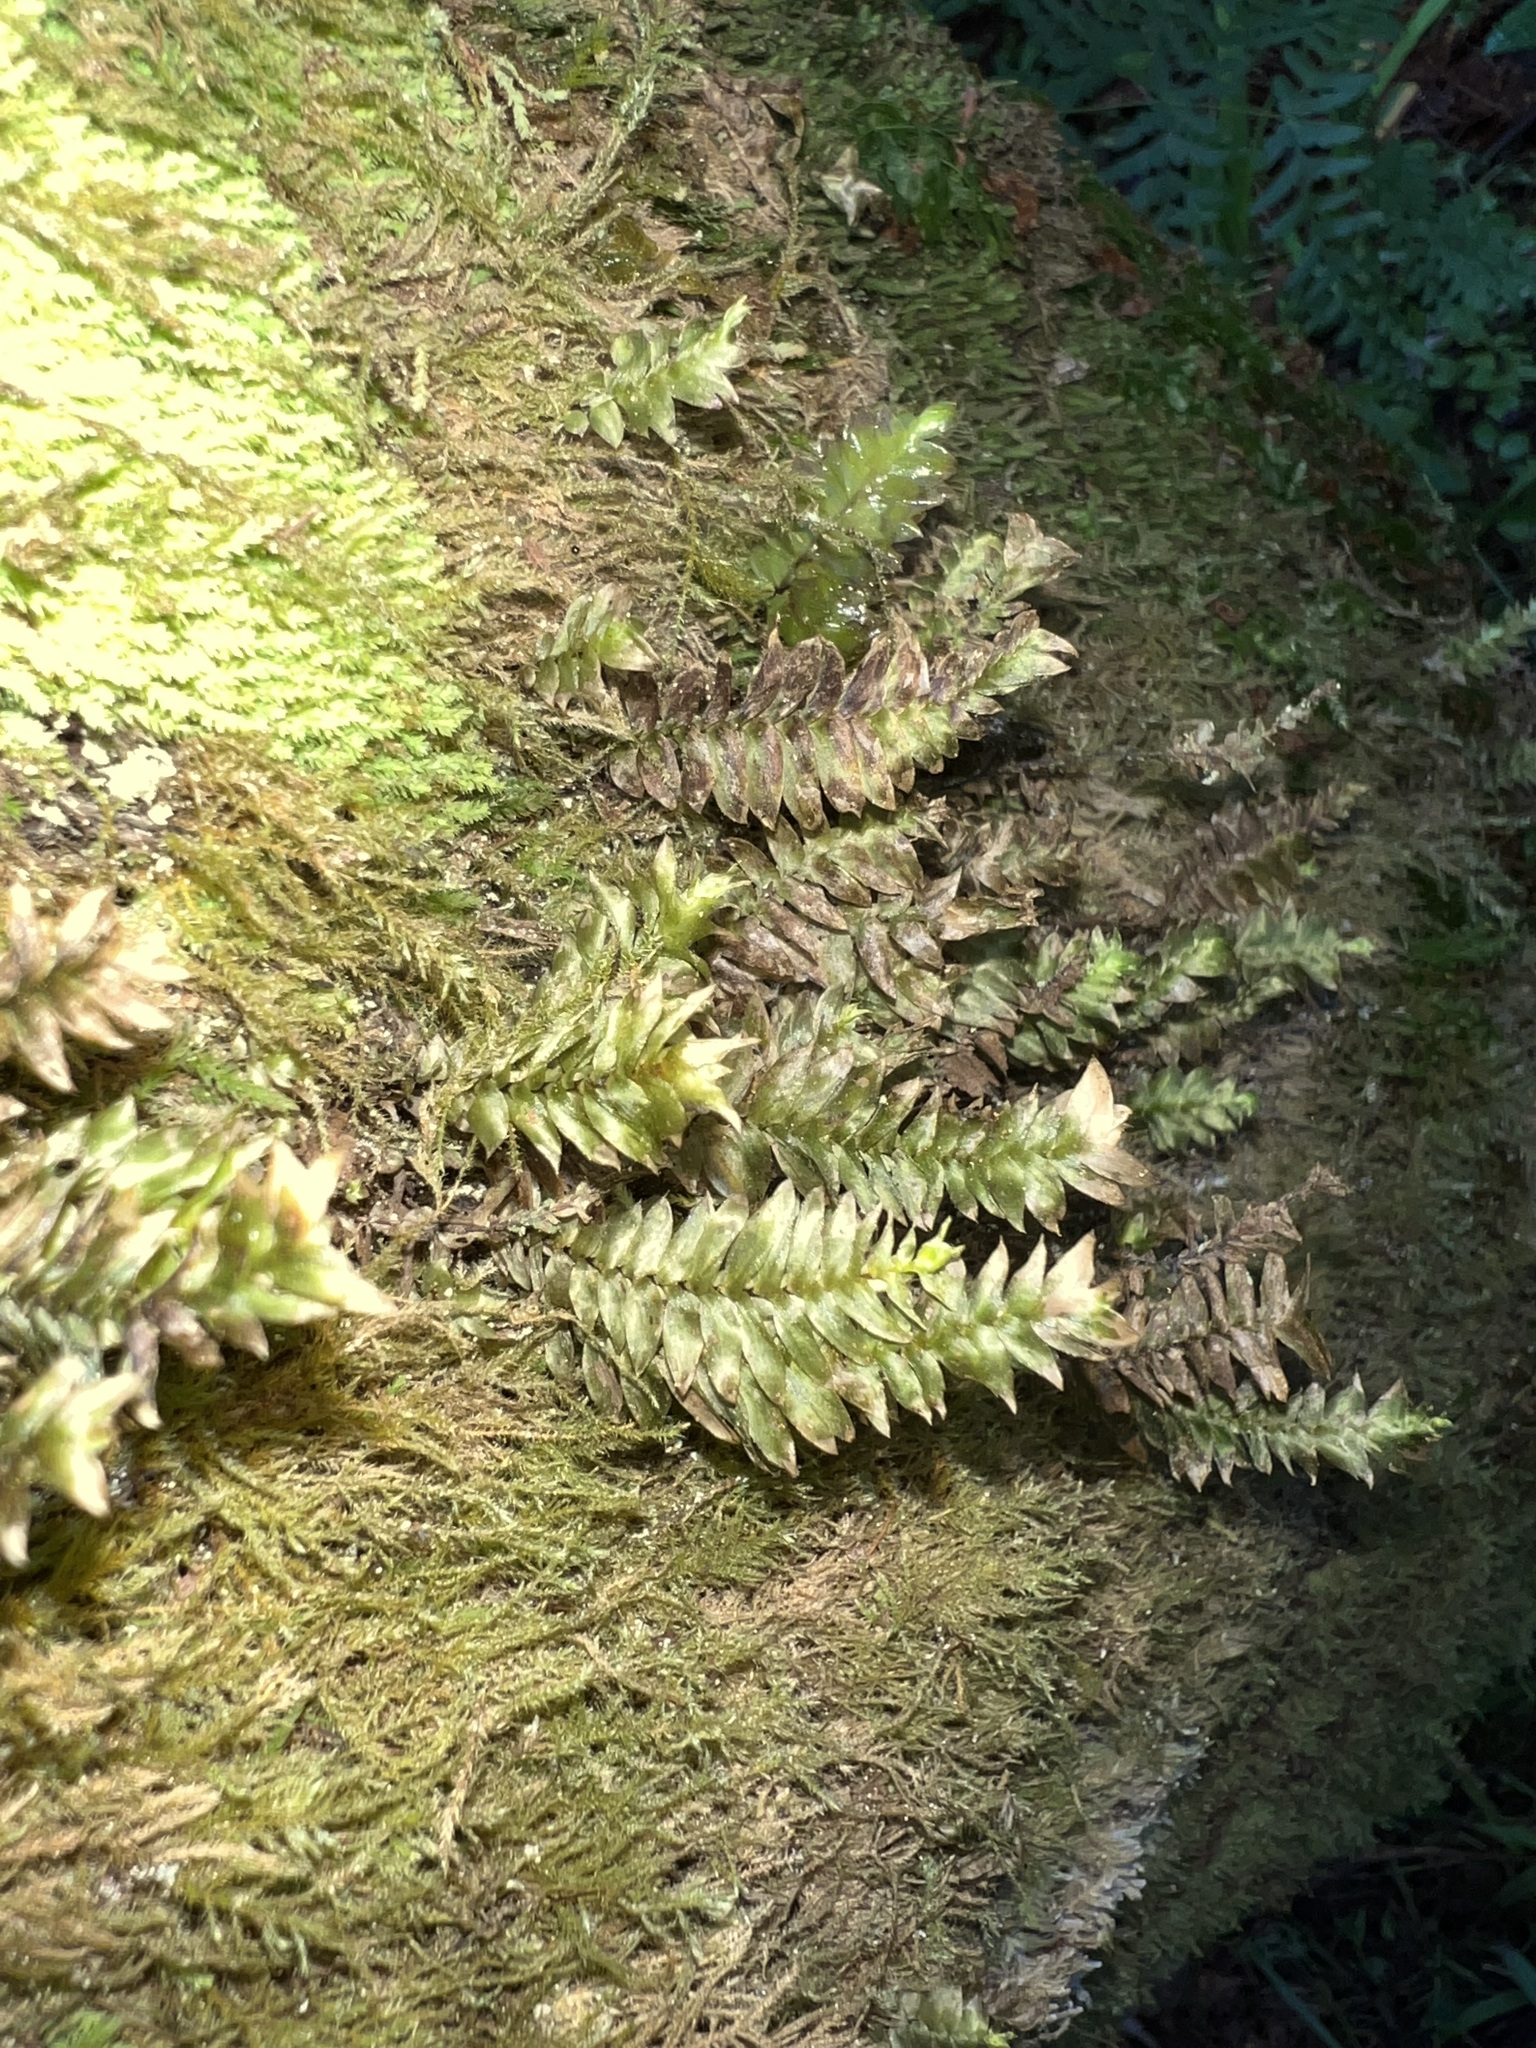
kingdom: Plantae
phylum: Bryophyta
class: Bryopsida
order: Hypopterygiales
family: Hypopterygiaceae
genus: Cyathophorum
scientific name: Cyathophorum bulbosum
